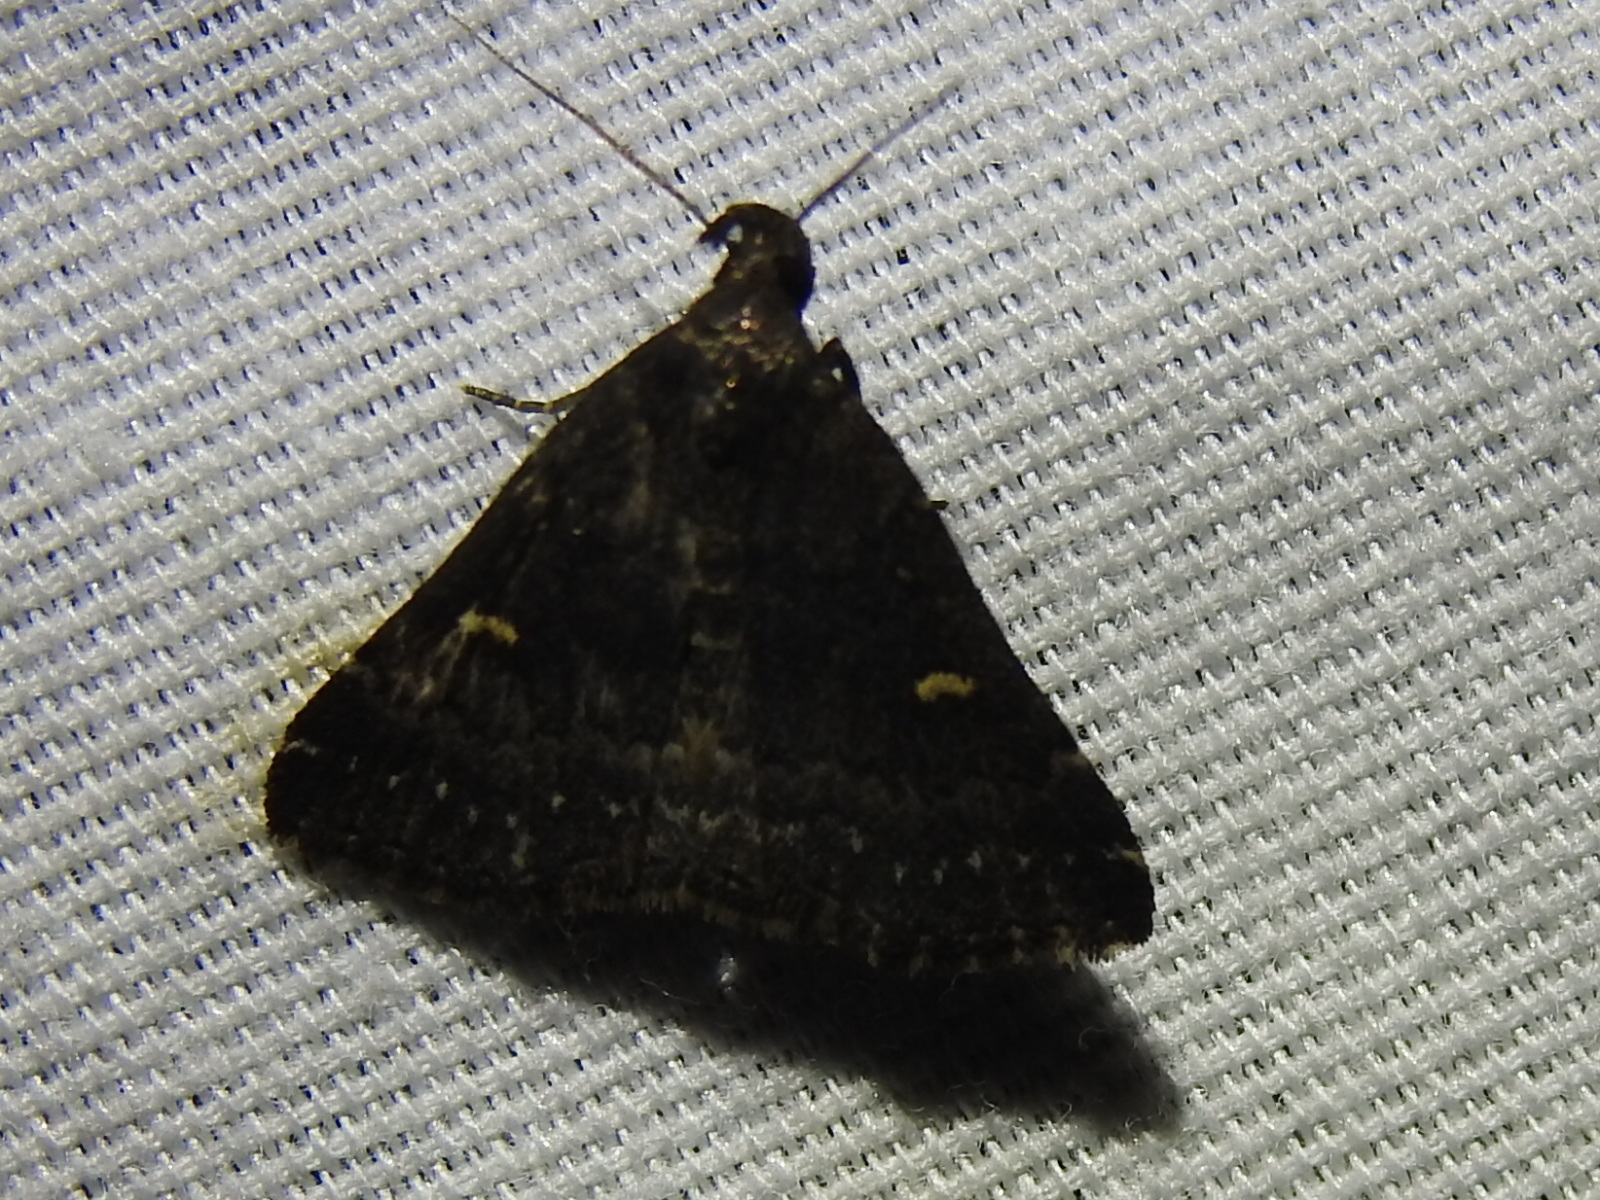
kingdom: Animalia
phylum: Arthropoda
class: Insecta
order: Lepidoptera
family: Erebidae
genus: Tetanolita
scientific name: Tetanolita mynesalis
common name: Smoky tetanolita moth
